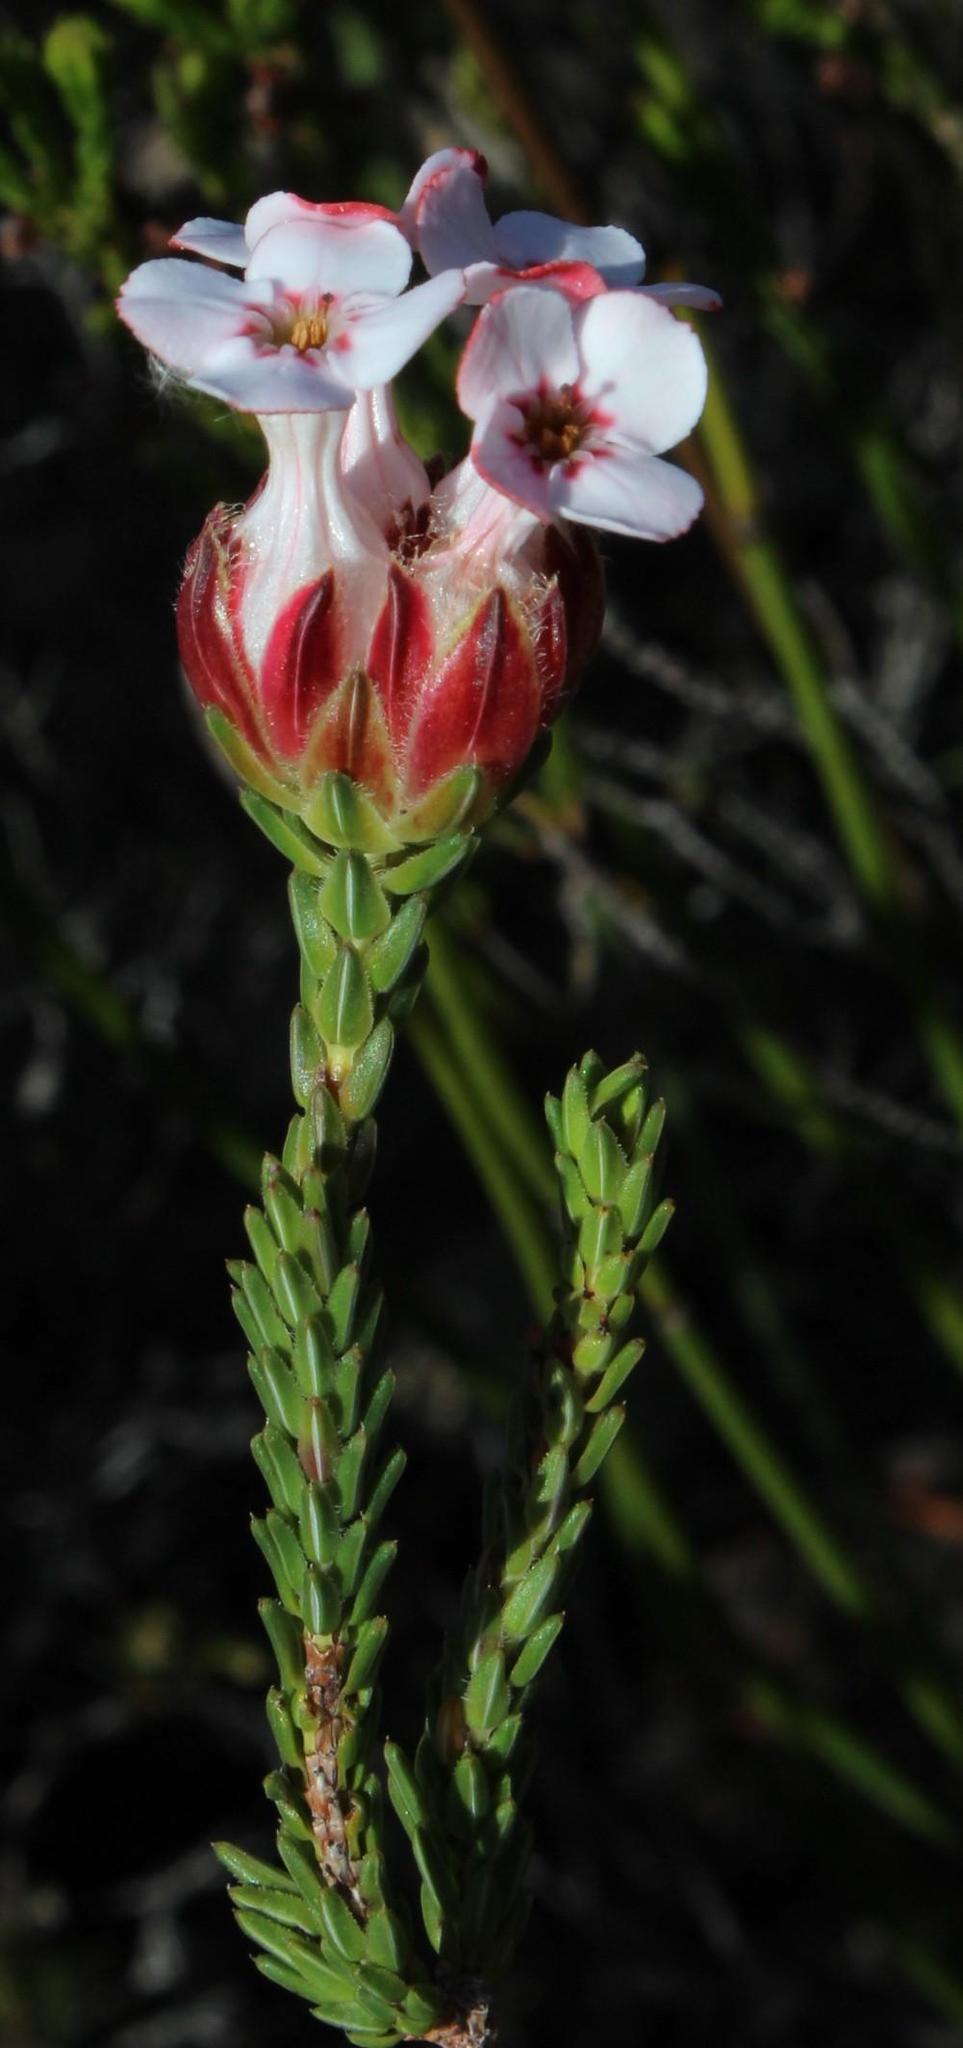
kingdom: Plantae
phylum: Tracheophyta
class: Magnoliopsida
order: Ericales
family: Ericaceae
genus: Erica
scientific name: Erica ampullacea
